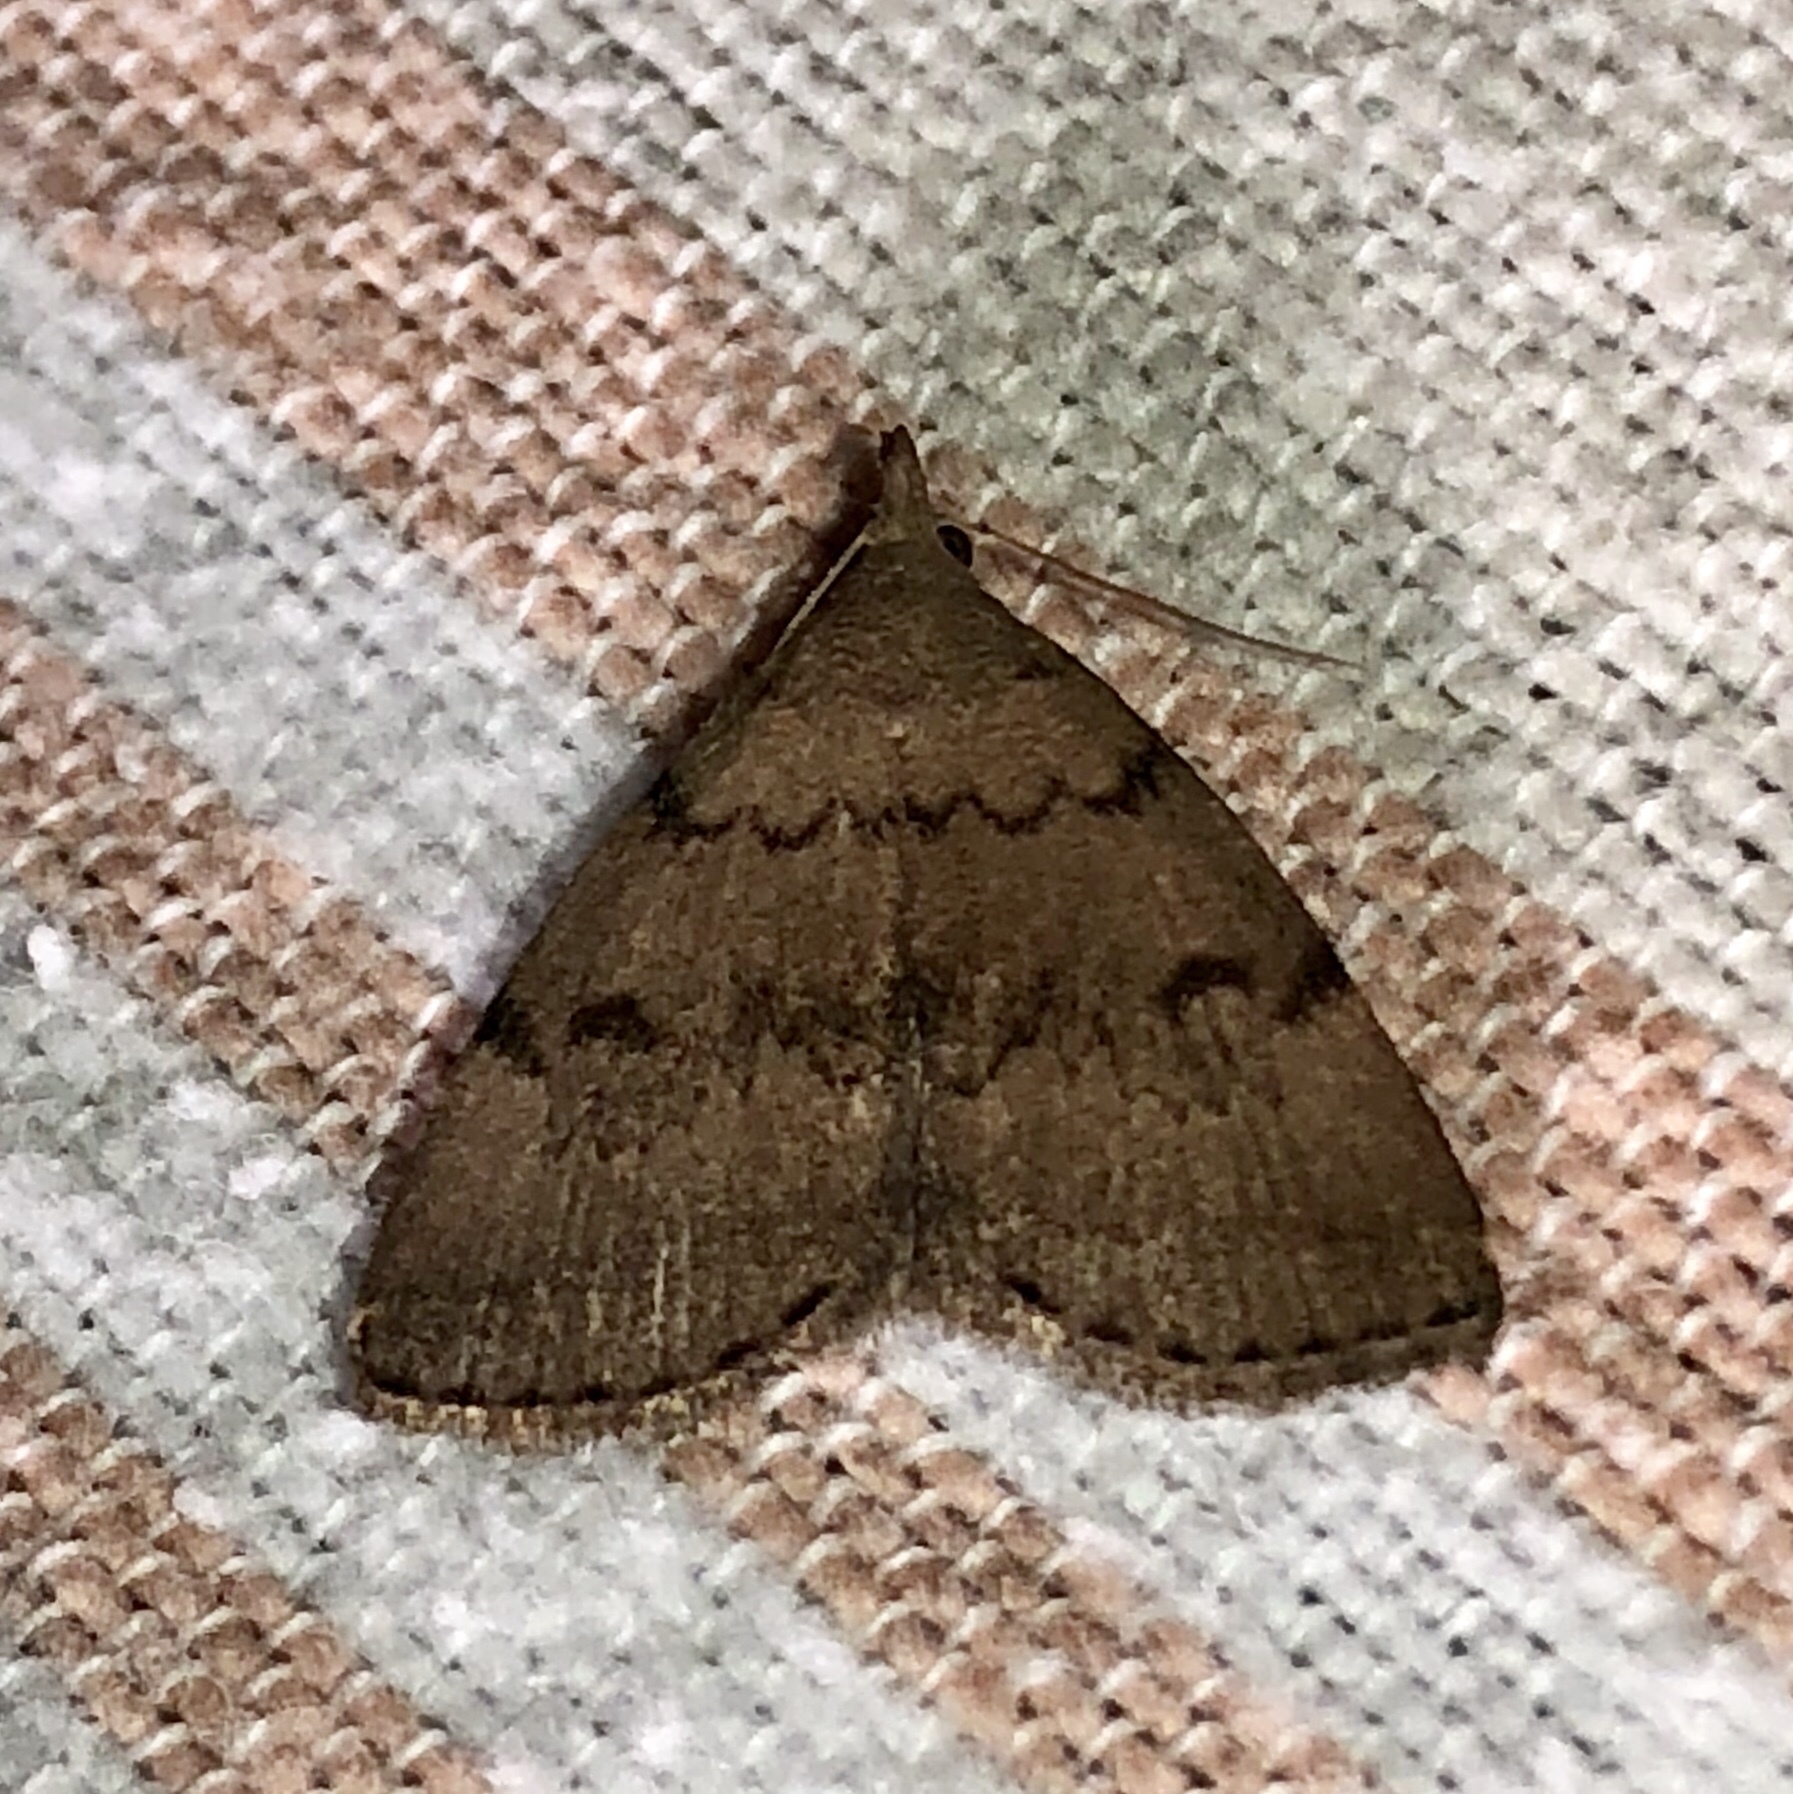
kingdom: Animalia
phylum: Arthropoda
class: Insecta
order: Lepidoptera
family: Erebidae
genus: Zanclognatha
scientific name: Zanclognatha dentata
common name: Toothed fan-foot
